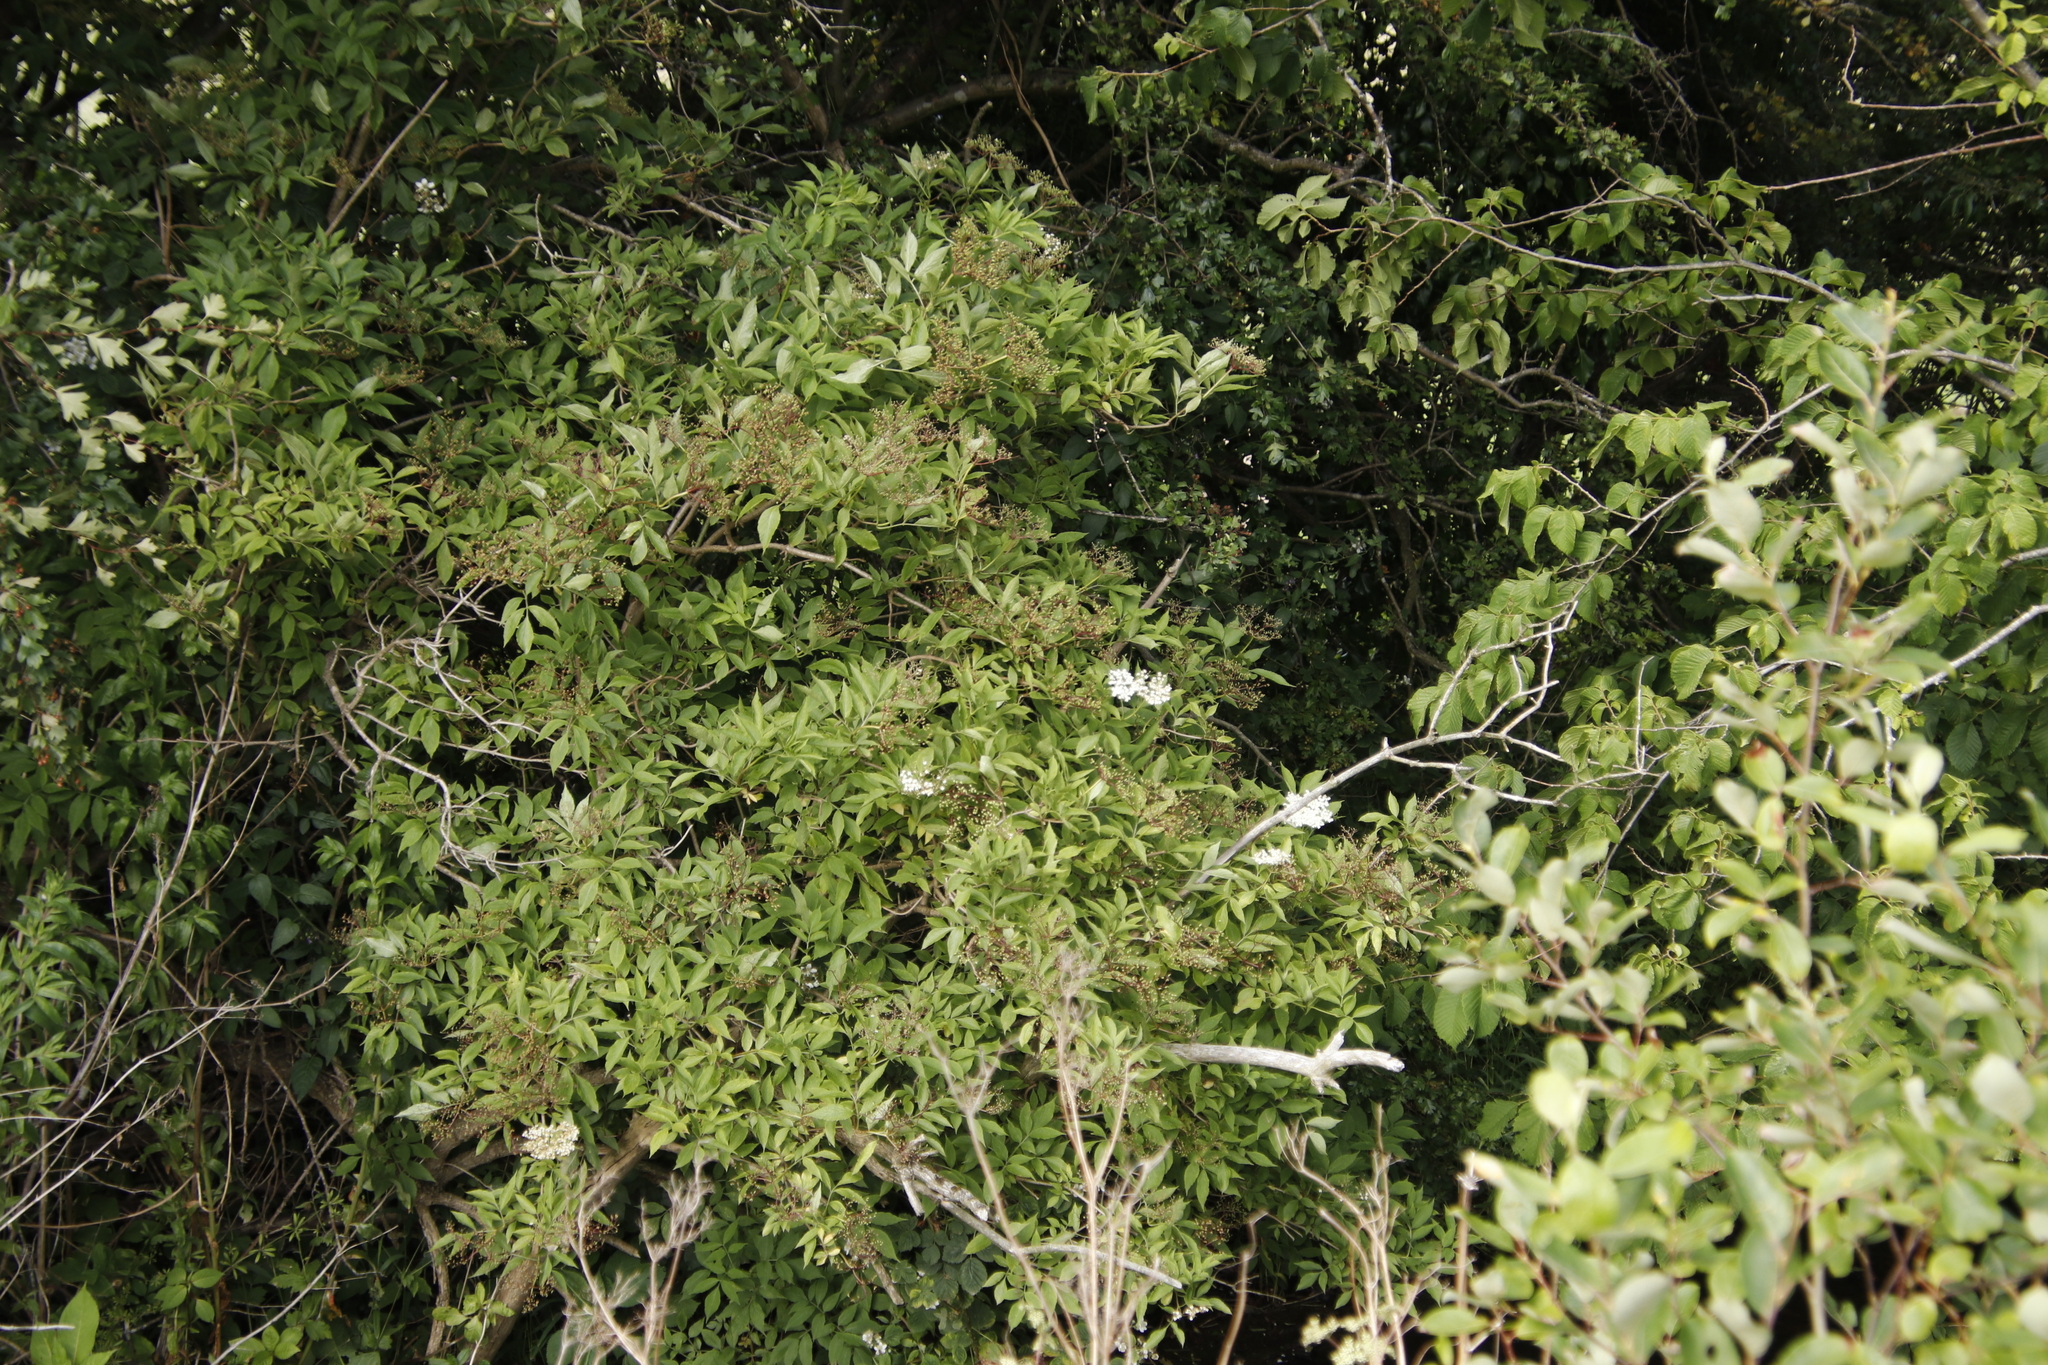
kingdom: Plantae
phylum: Tracheophyta
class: Magnoliopsida
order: Dipsacales
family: Viburnaceae
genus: Sambucus
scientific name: Sambucus nigra
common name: Elder
